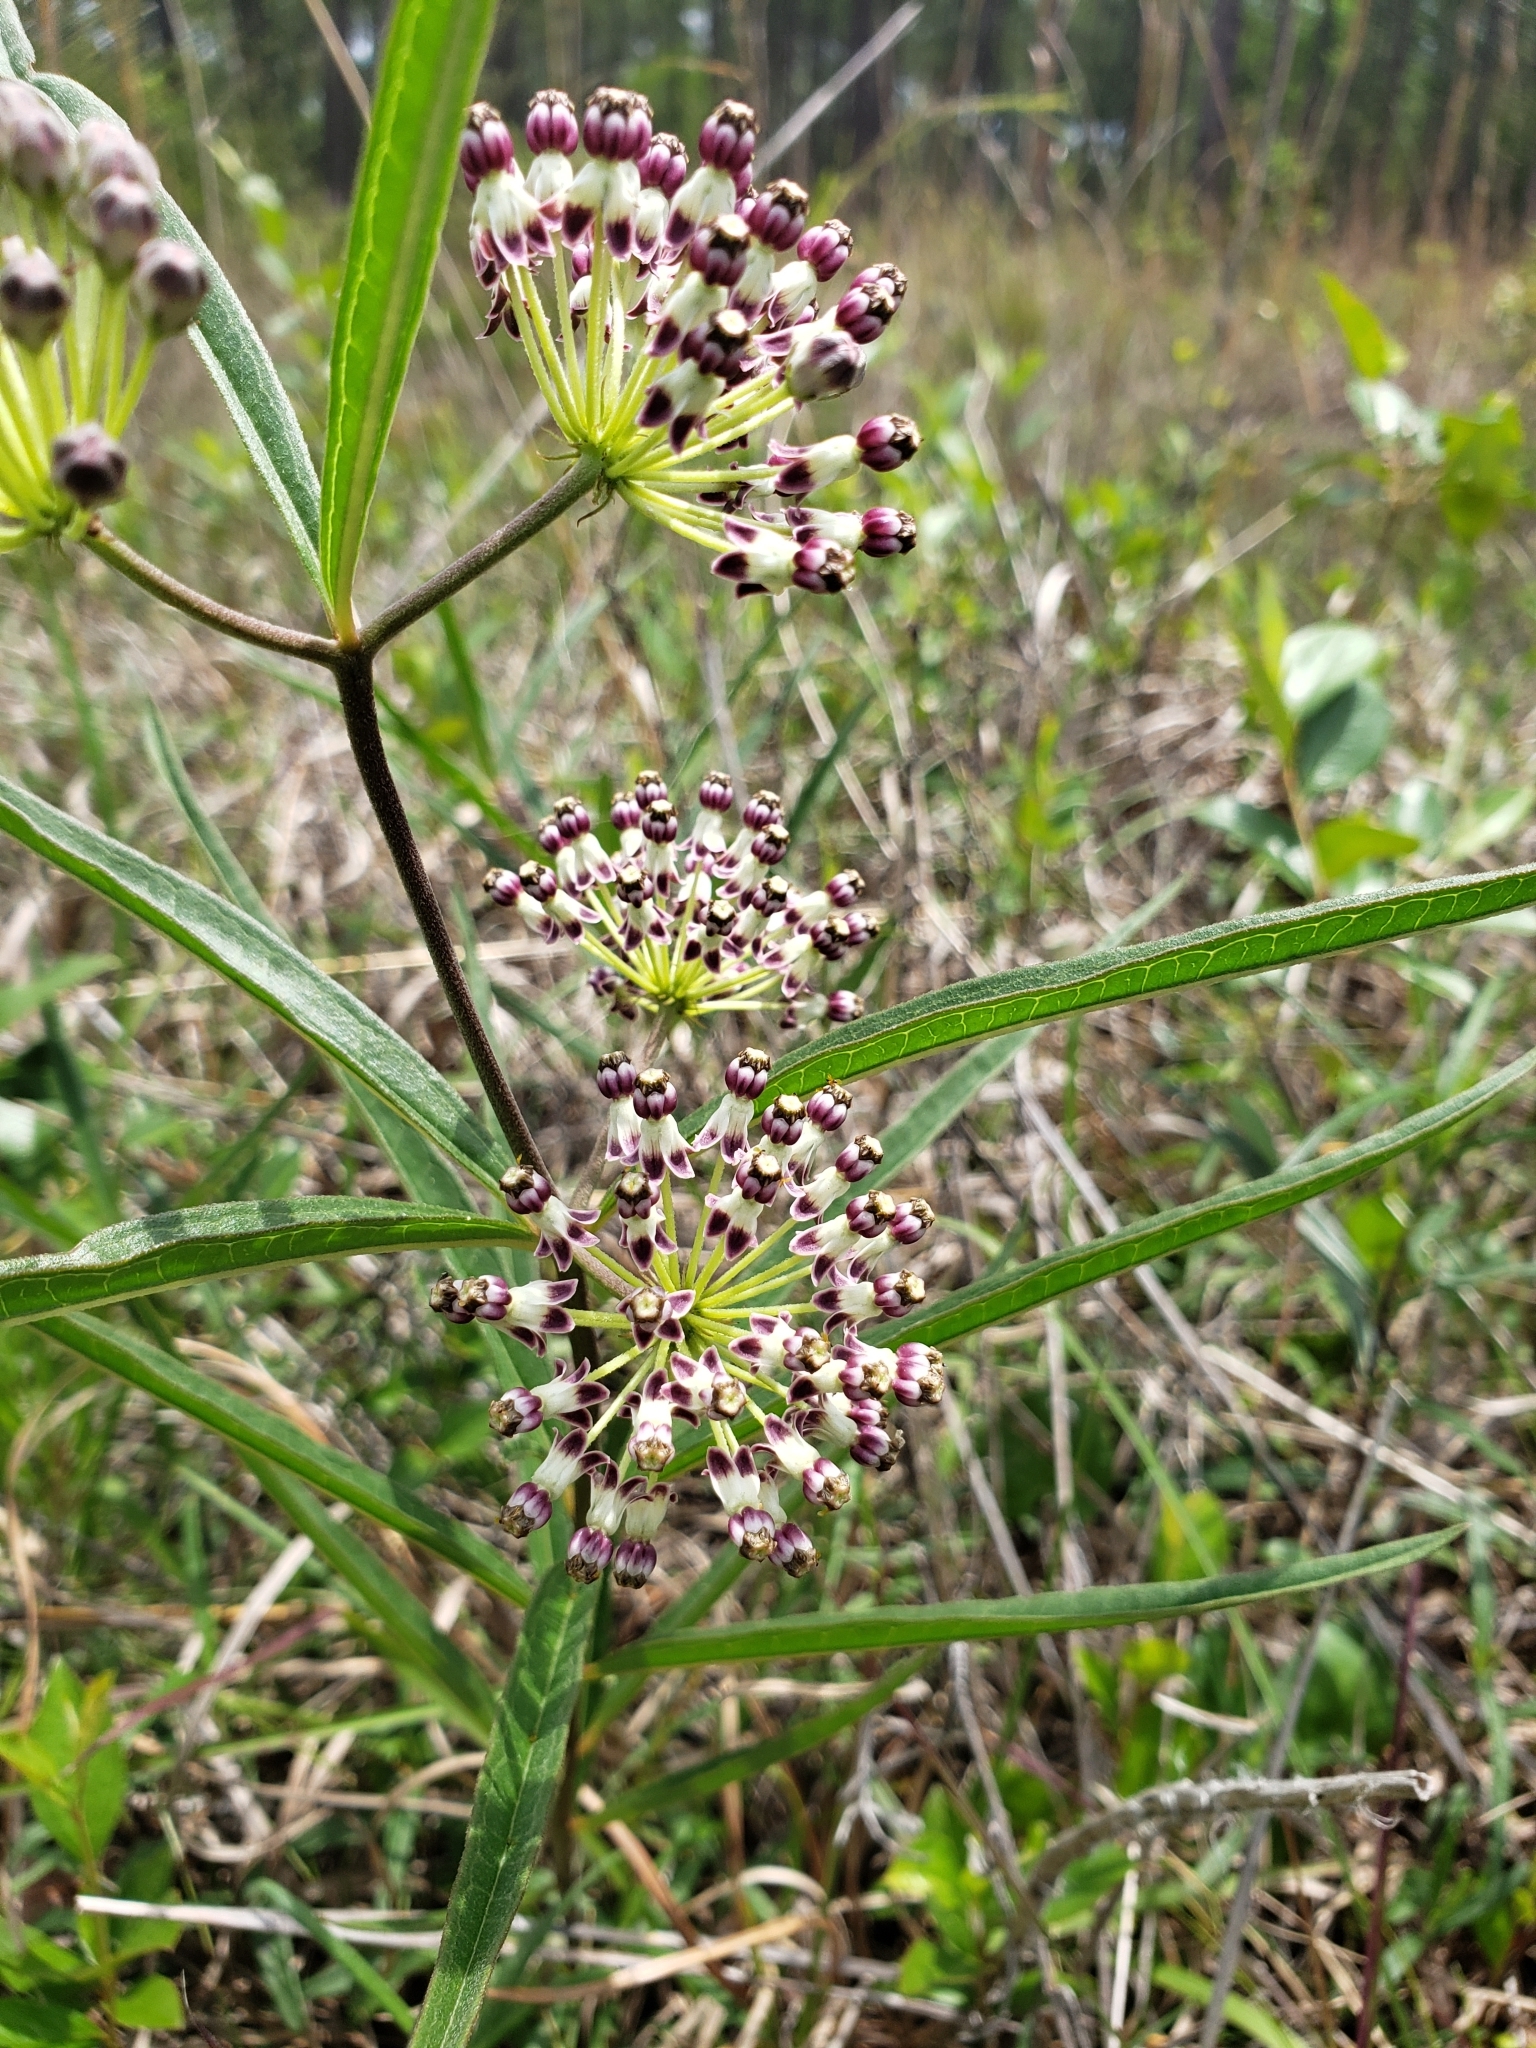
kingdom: Plantae
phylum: Tracheophyta
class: Magnoliopsida
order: Gentianales
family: Apocynaceae
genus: Asclepias
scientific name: Asclepias longifolia
